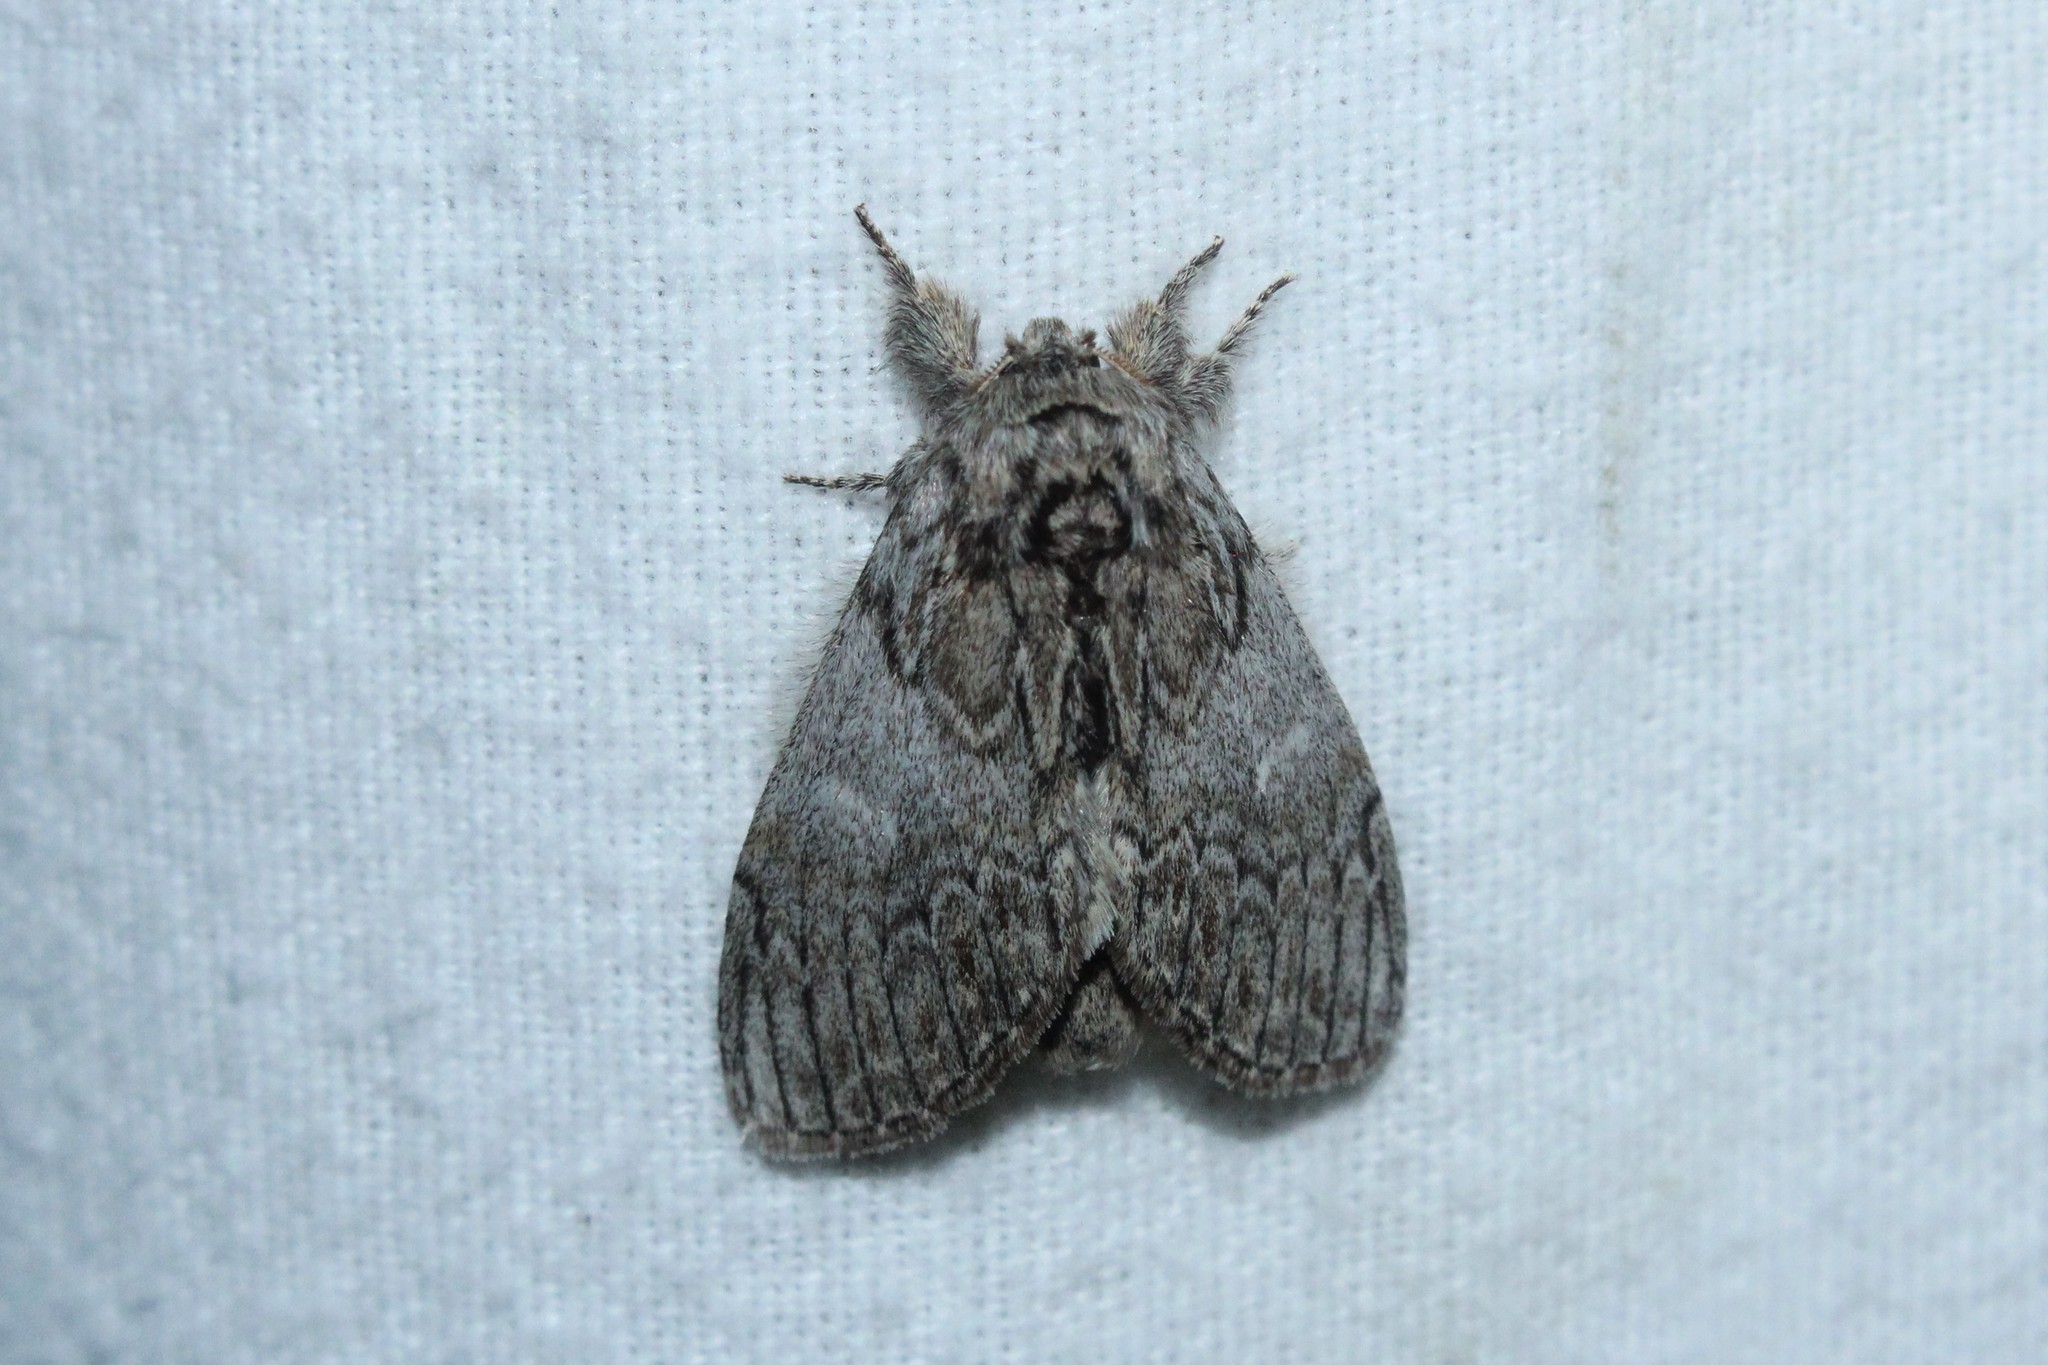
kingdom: Animalia
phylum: Arthropoda
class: Insecta
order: Lepidoptera
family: Notodontidae
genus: Peridea
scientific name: Peridea basitriens
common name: Oval-based prominent
